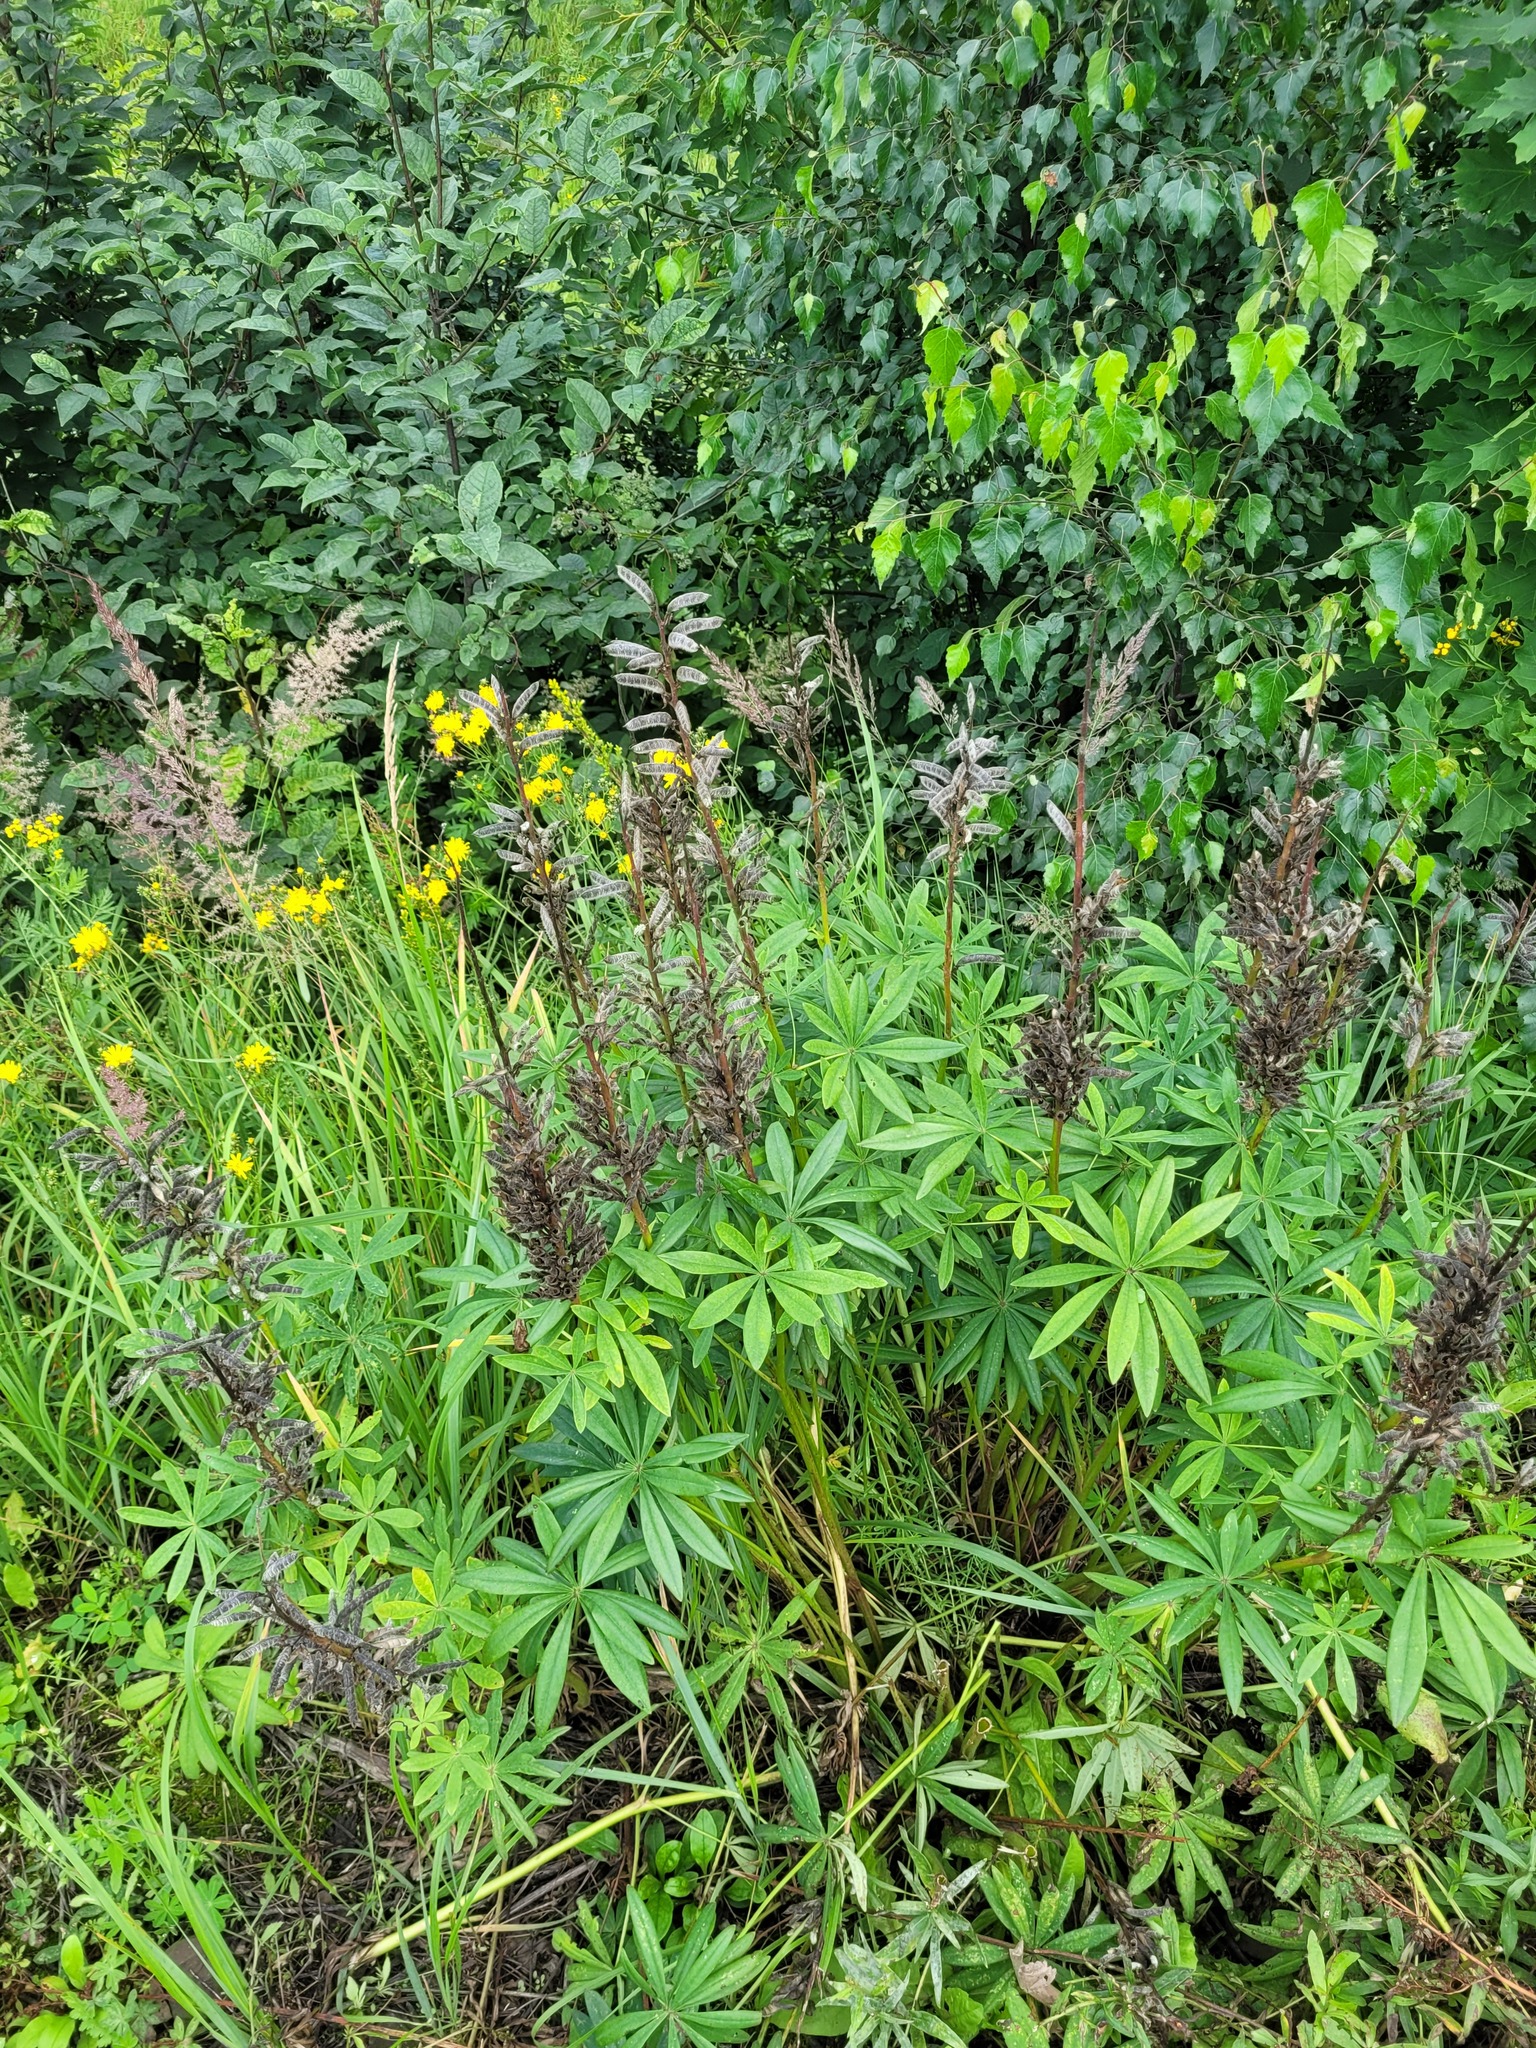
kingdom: Plantae
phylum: Tracheophyta
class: Magnoliopsida
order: Fabales
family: Fabaceae
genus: Lupinus
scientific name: Lupinus polyphyllus
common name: Garden lupin
